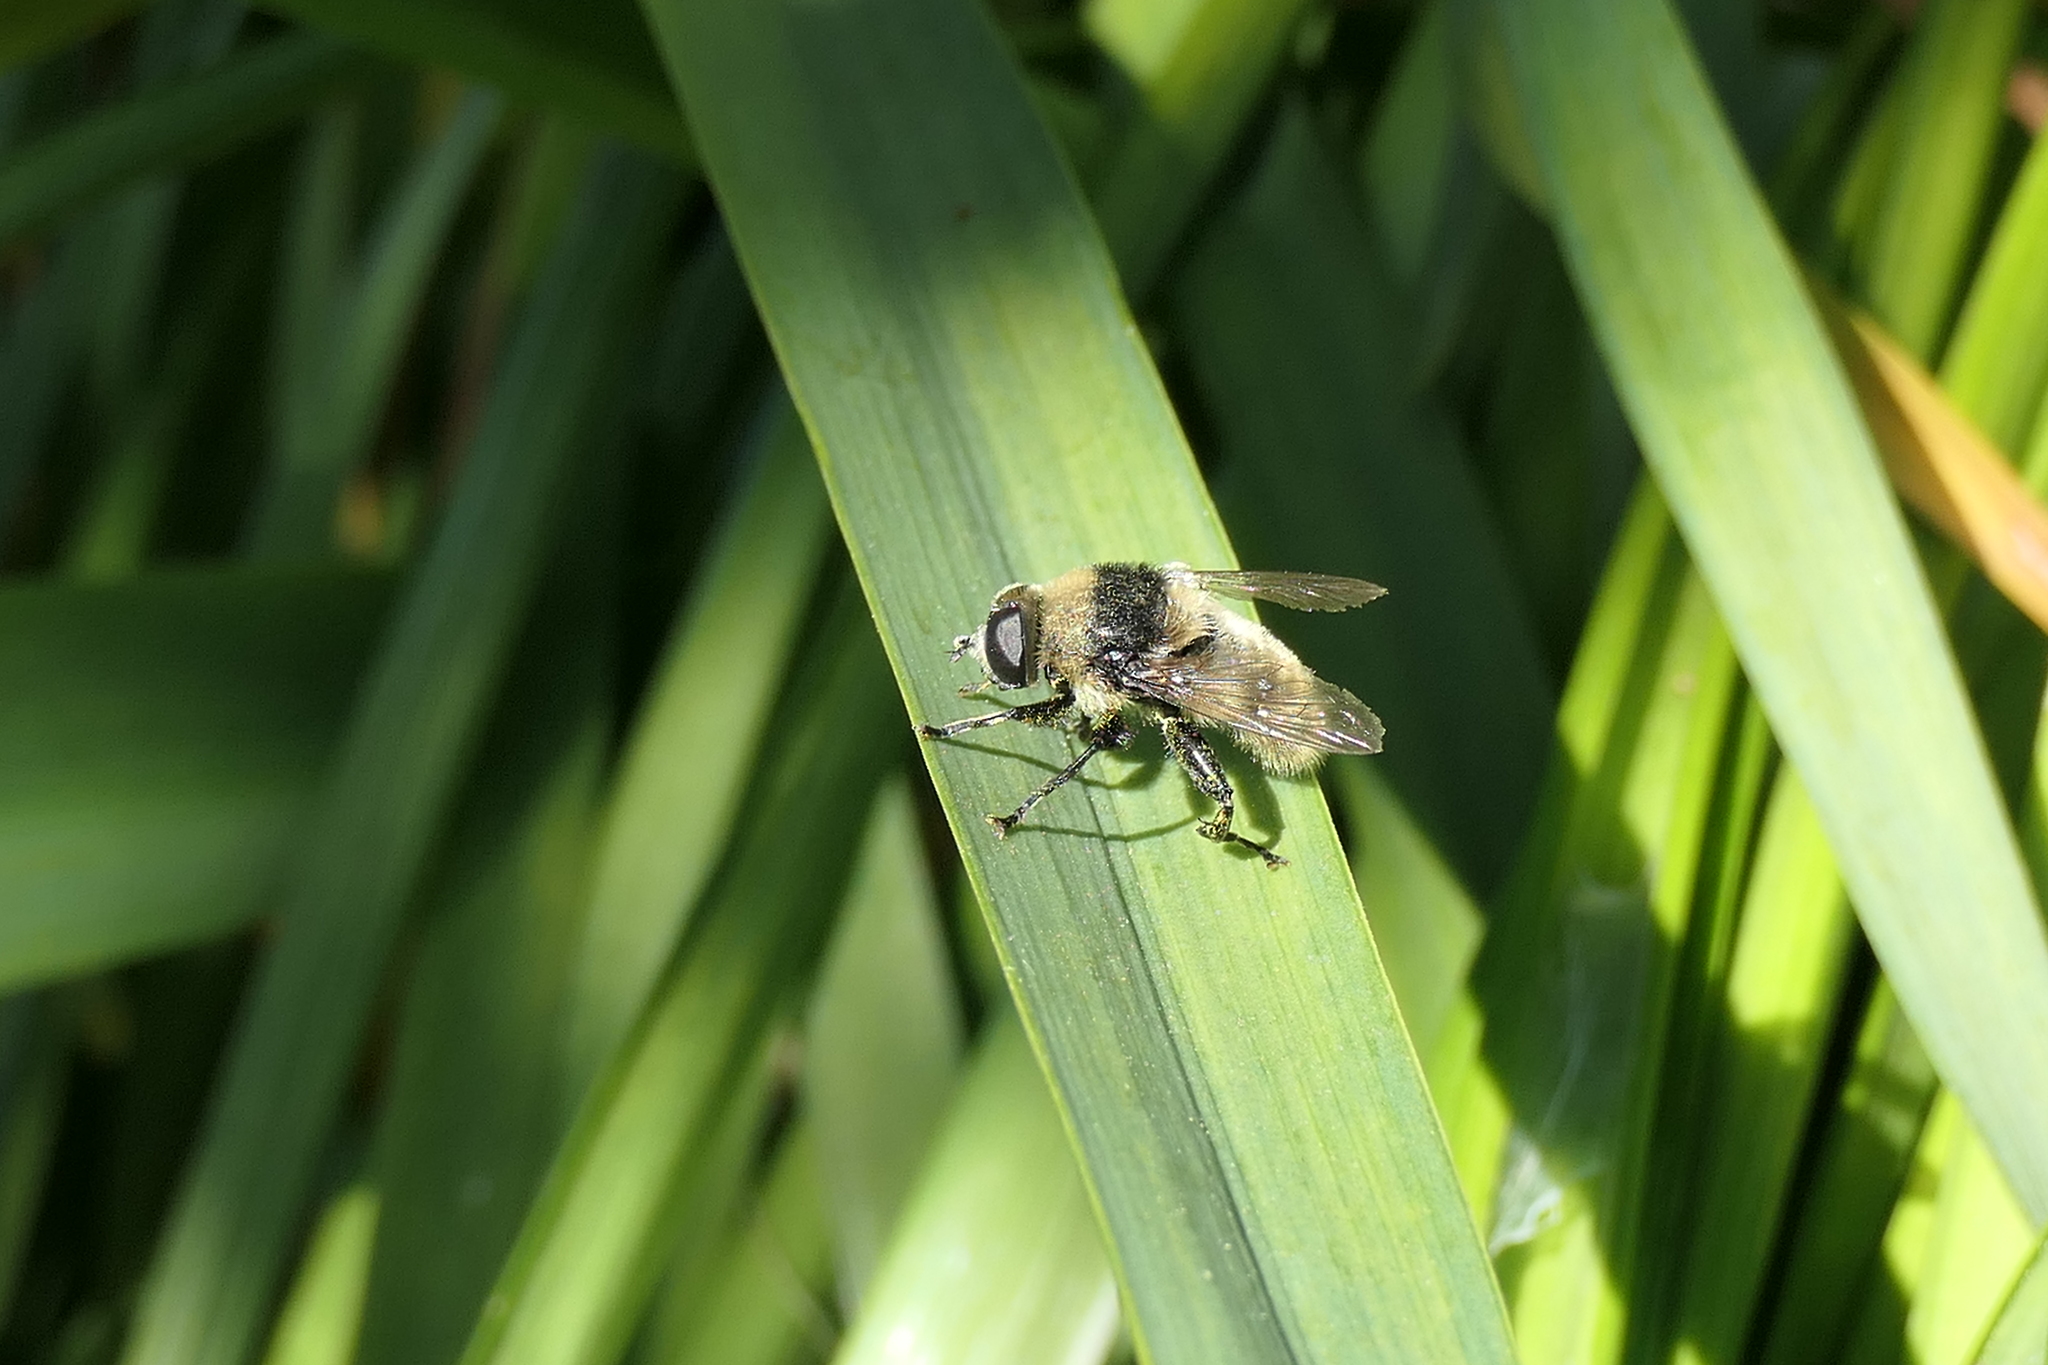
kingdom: Animalia
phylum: Arthropoda
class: Insecta
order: Diptera
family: Syrphidae
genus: Merodon
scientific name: Merodon equestris
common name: Greater bulb-fly
